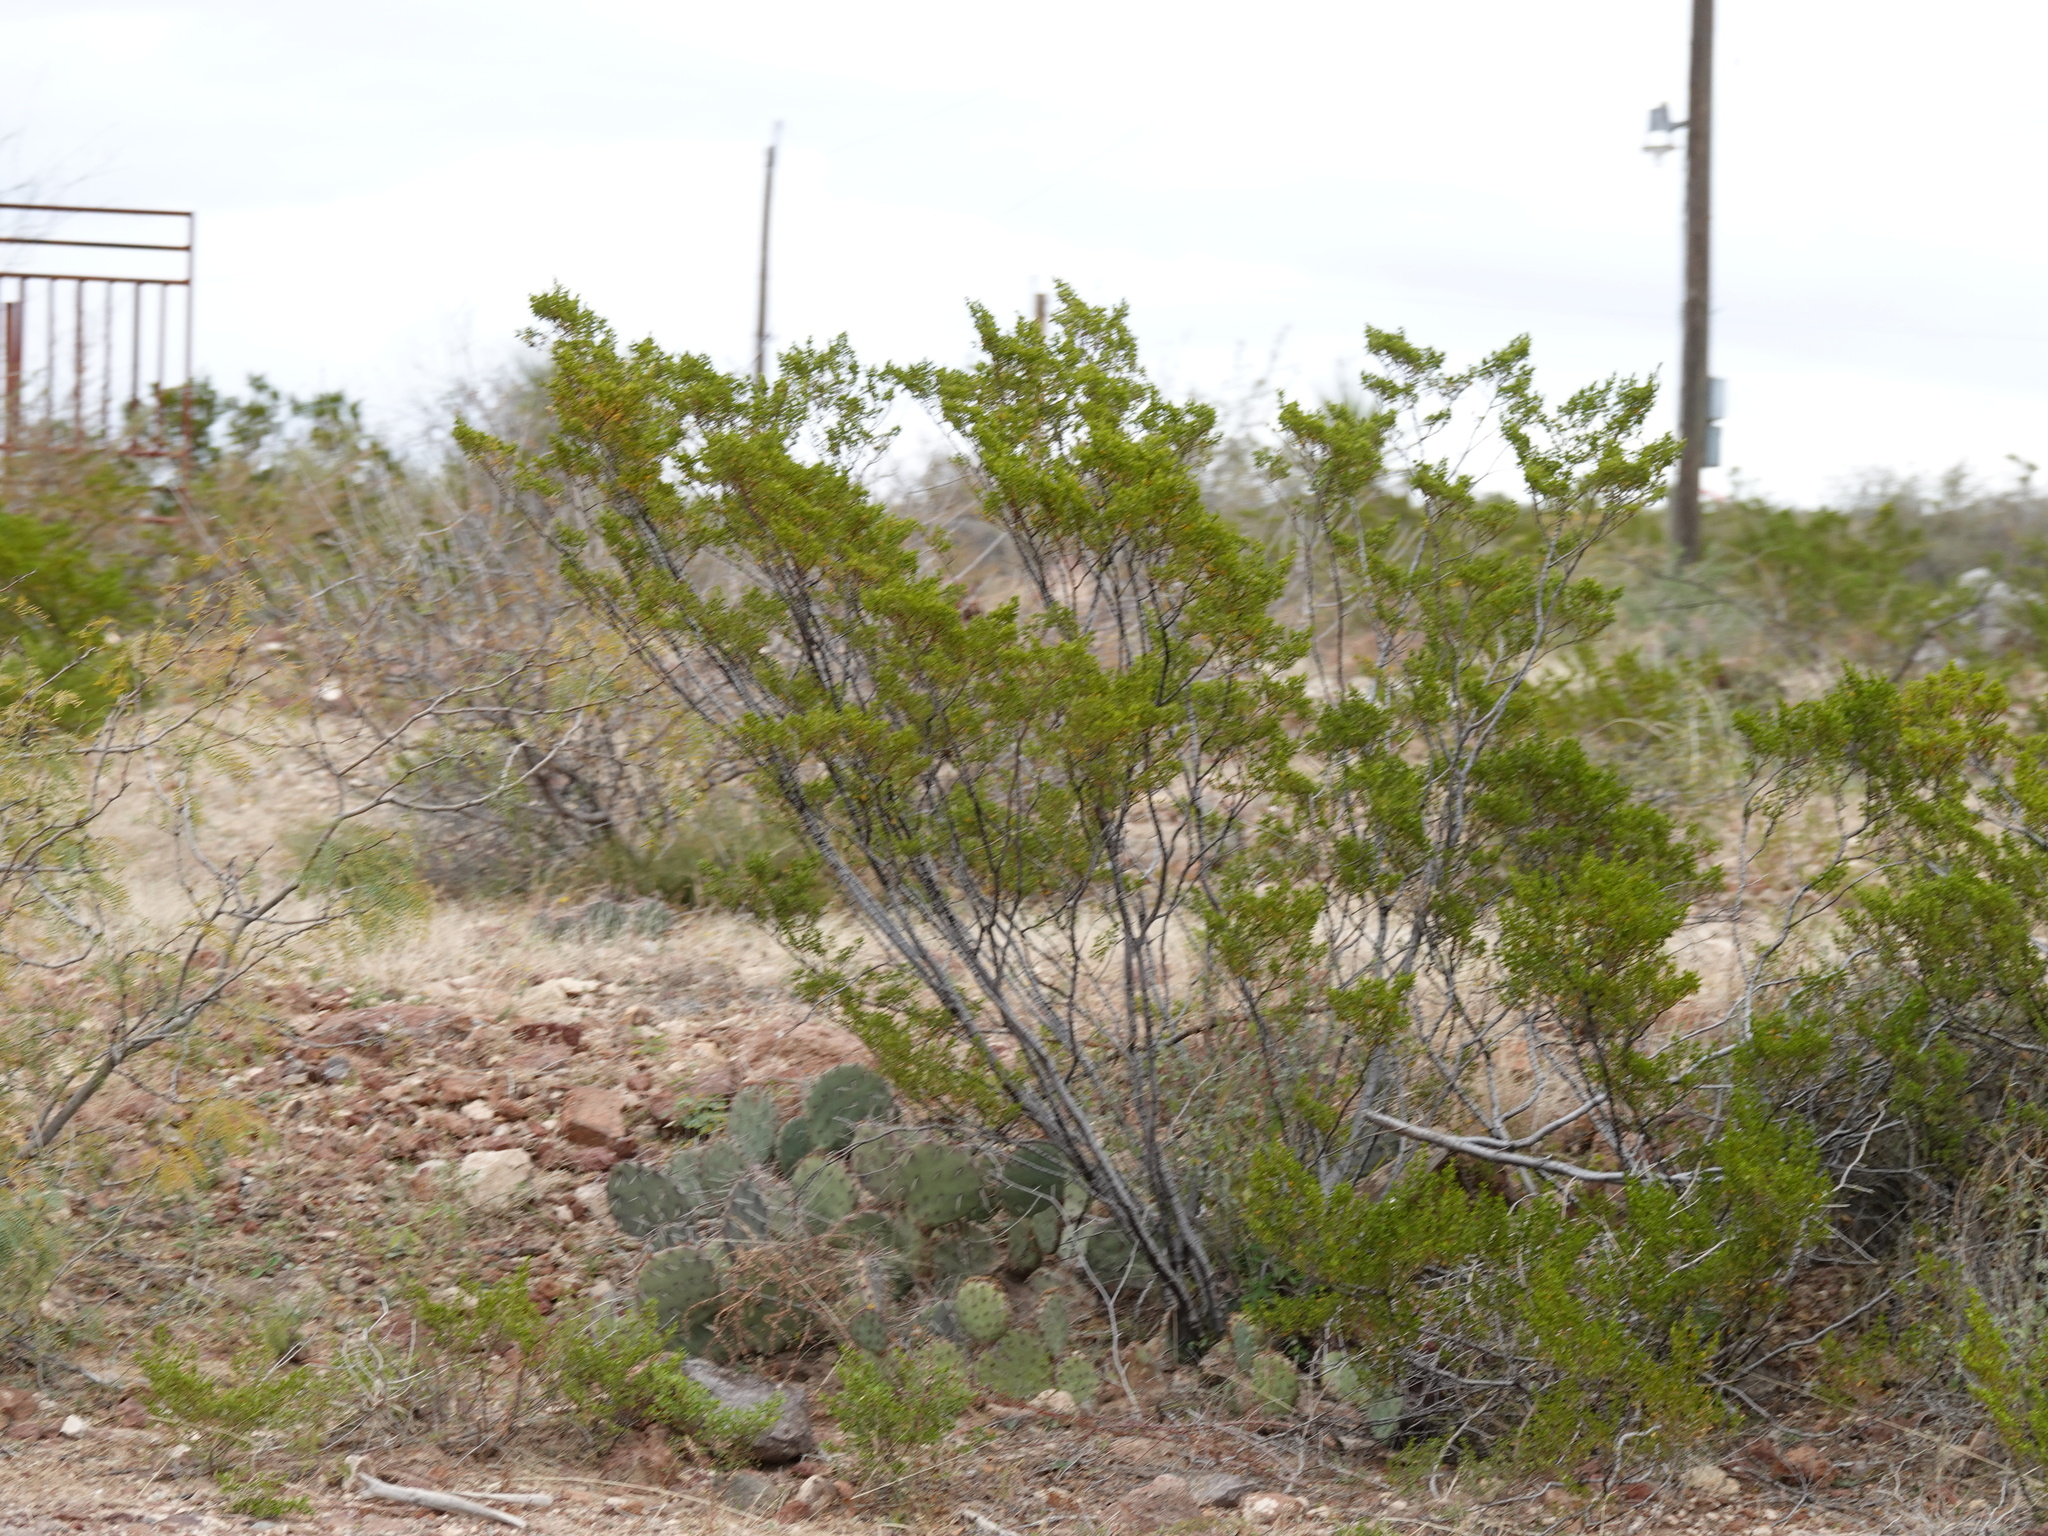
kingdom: Plantae
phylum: Tracheophyta
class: Magnoliopsida
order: Zygophyllales
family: Zygophyllaceae
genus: Larrea
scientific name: Larrea tridentata
